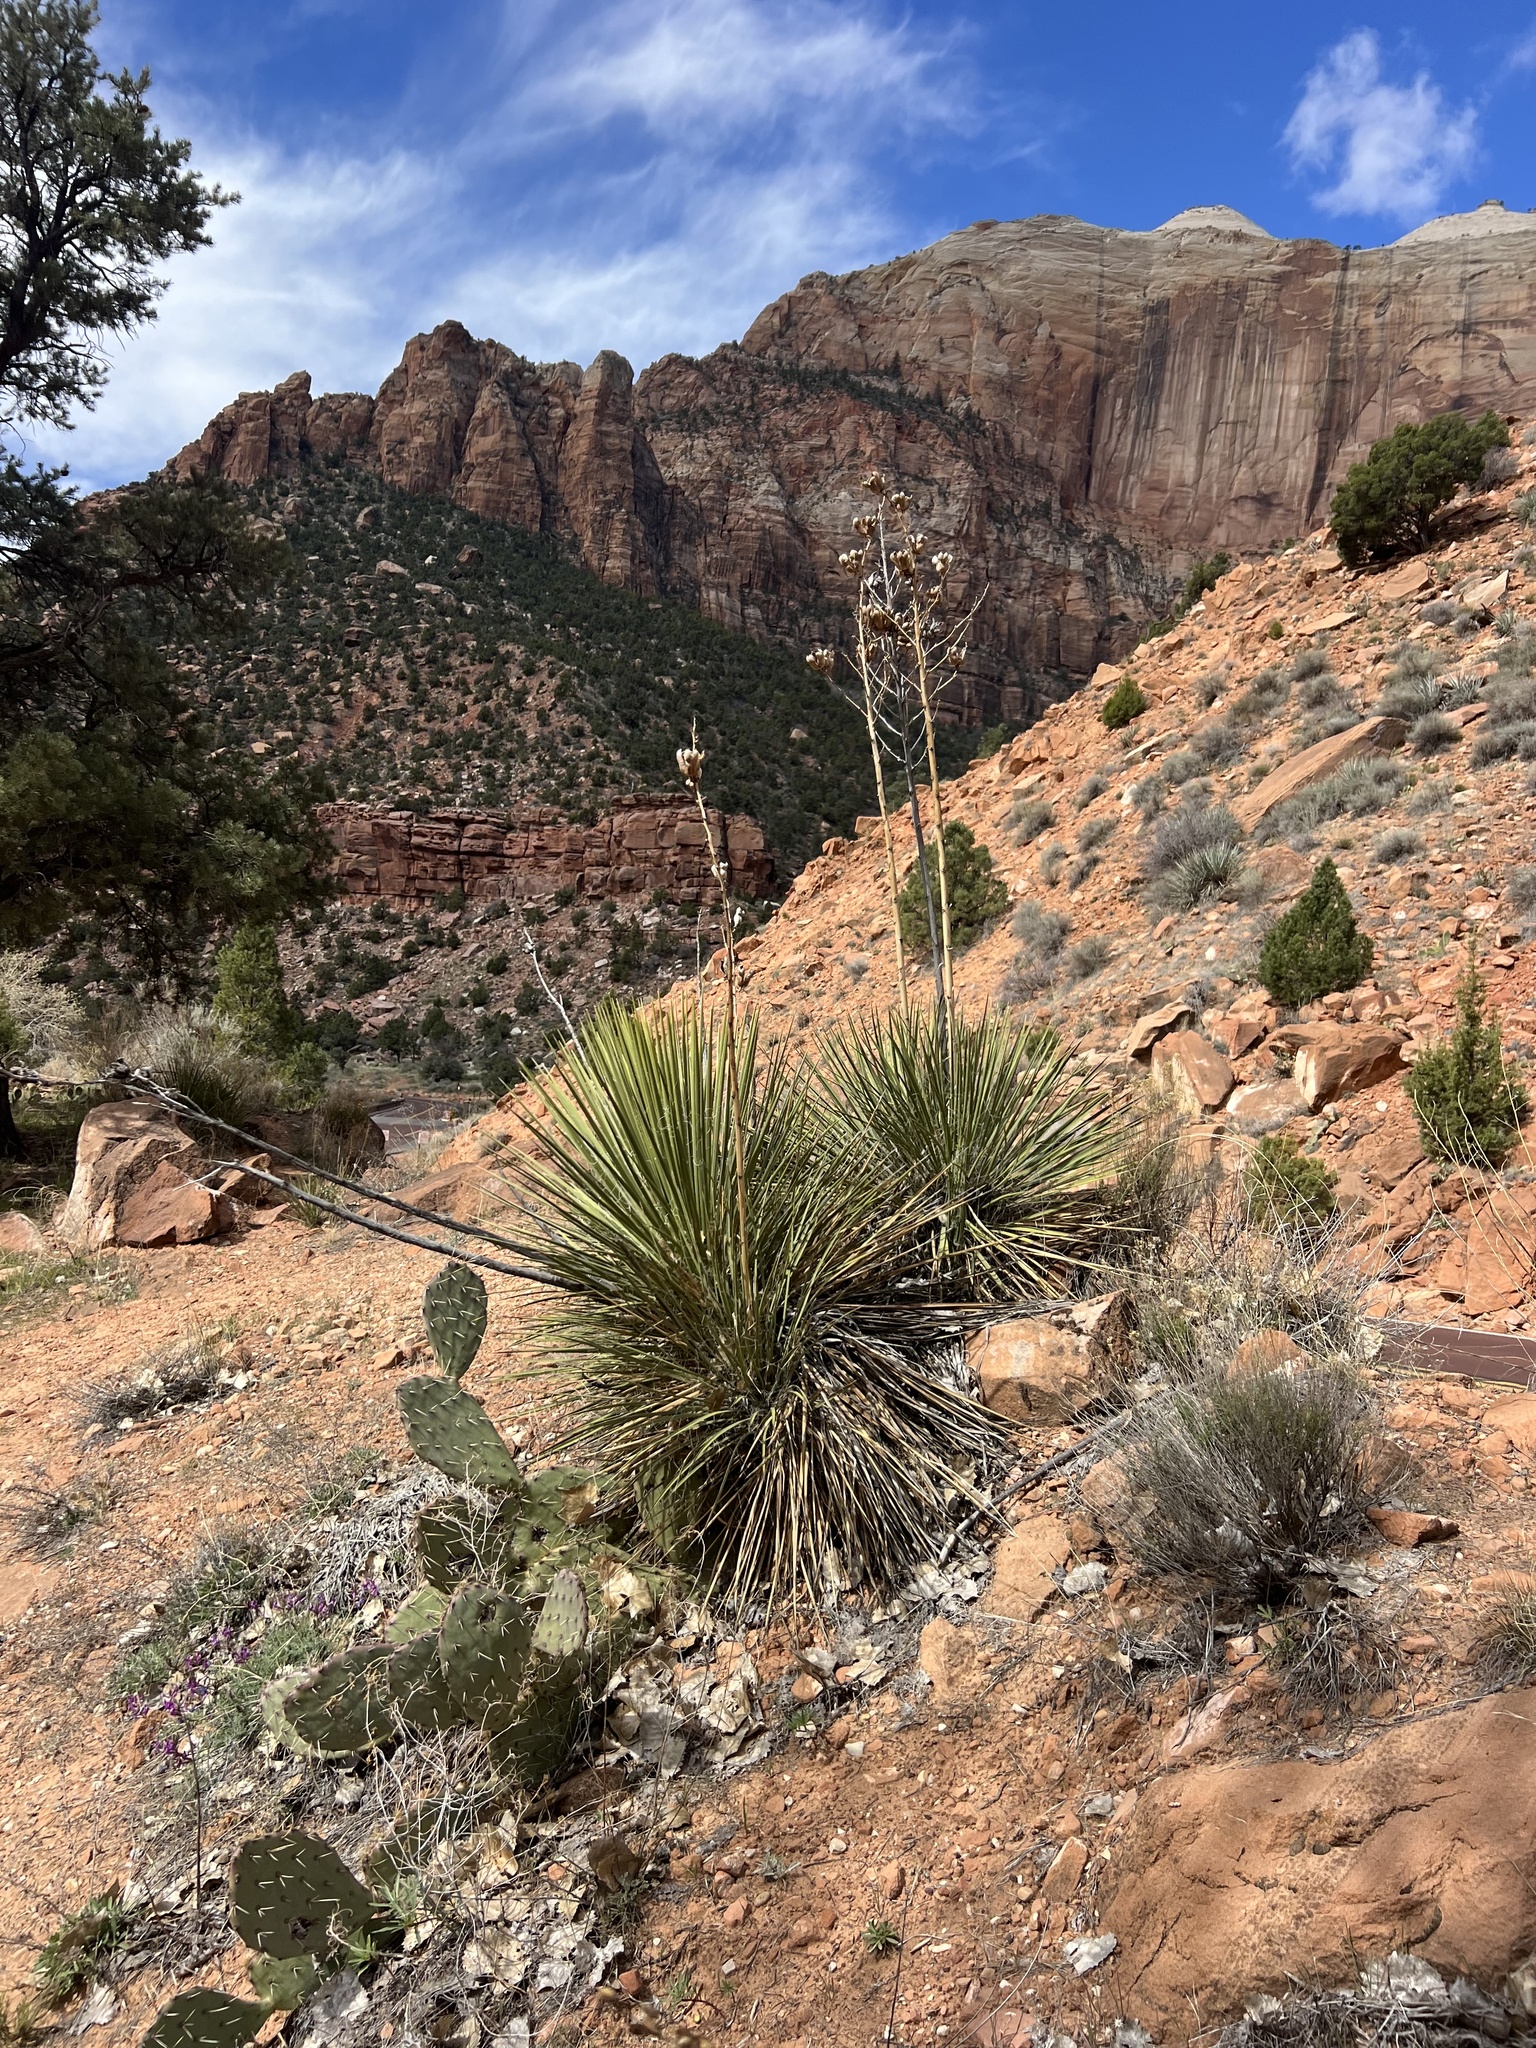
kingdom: Plantae
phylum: Tracheophyta
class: Liliopsida
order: Asparagales
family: Asparagaceae
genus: Yucca
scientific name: Yucca angustissima
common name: Narrowleaf yucca
